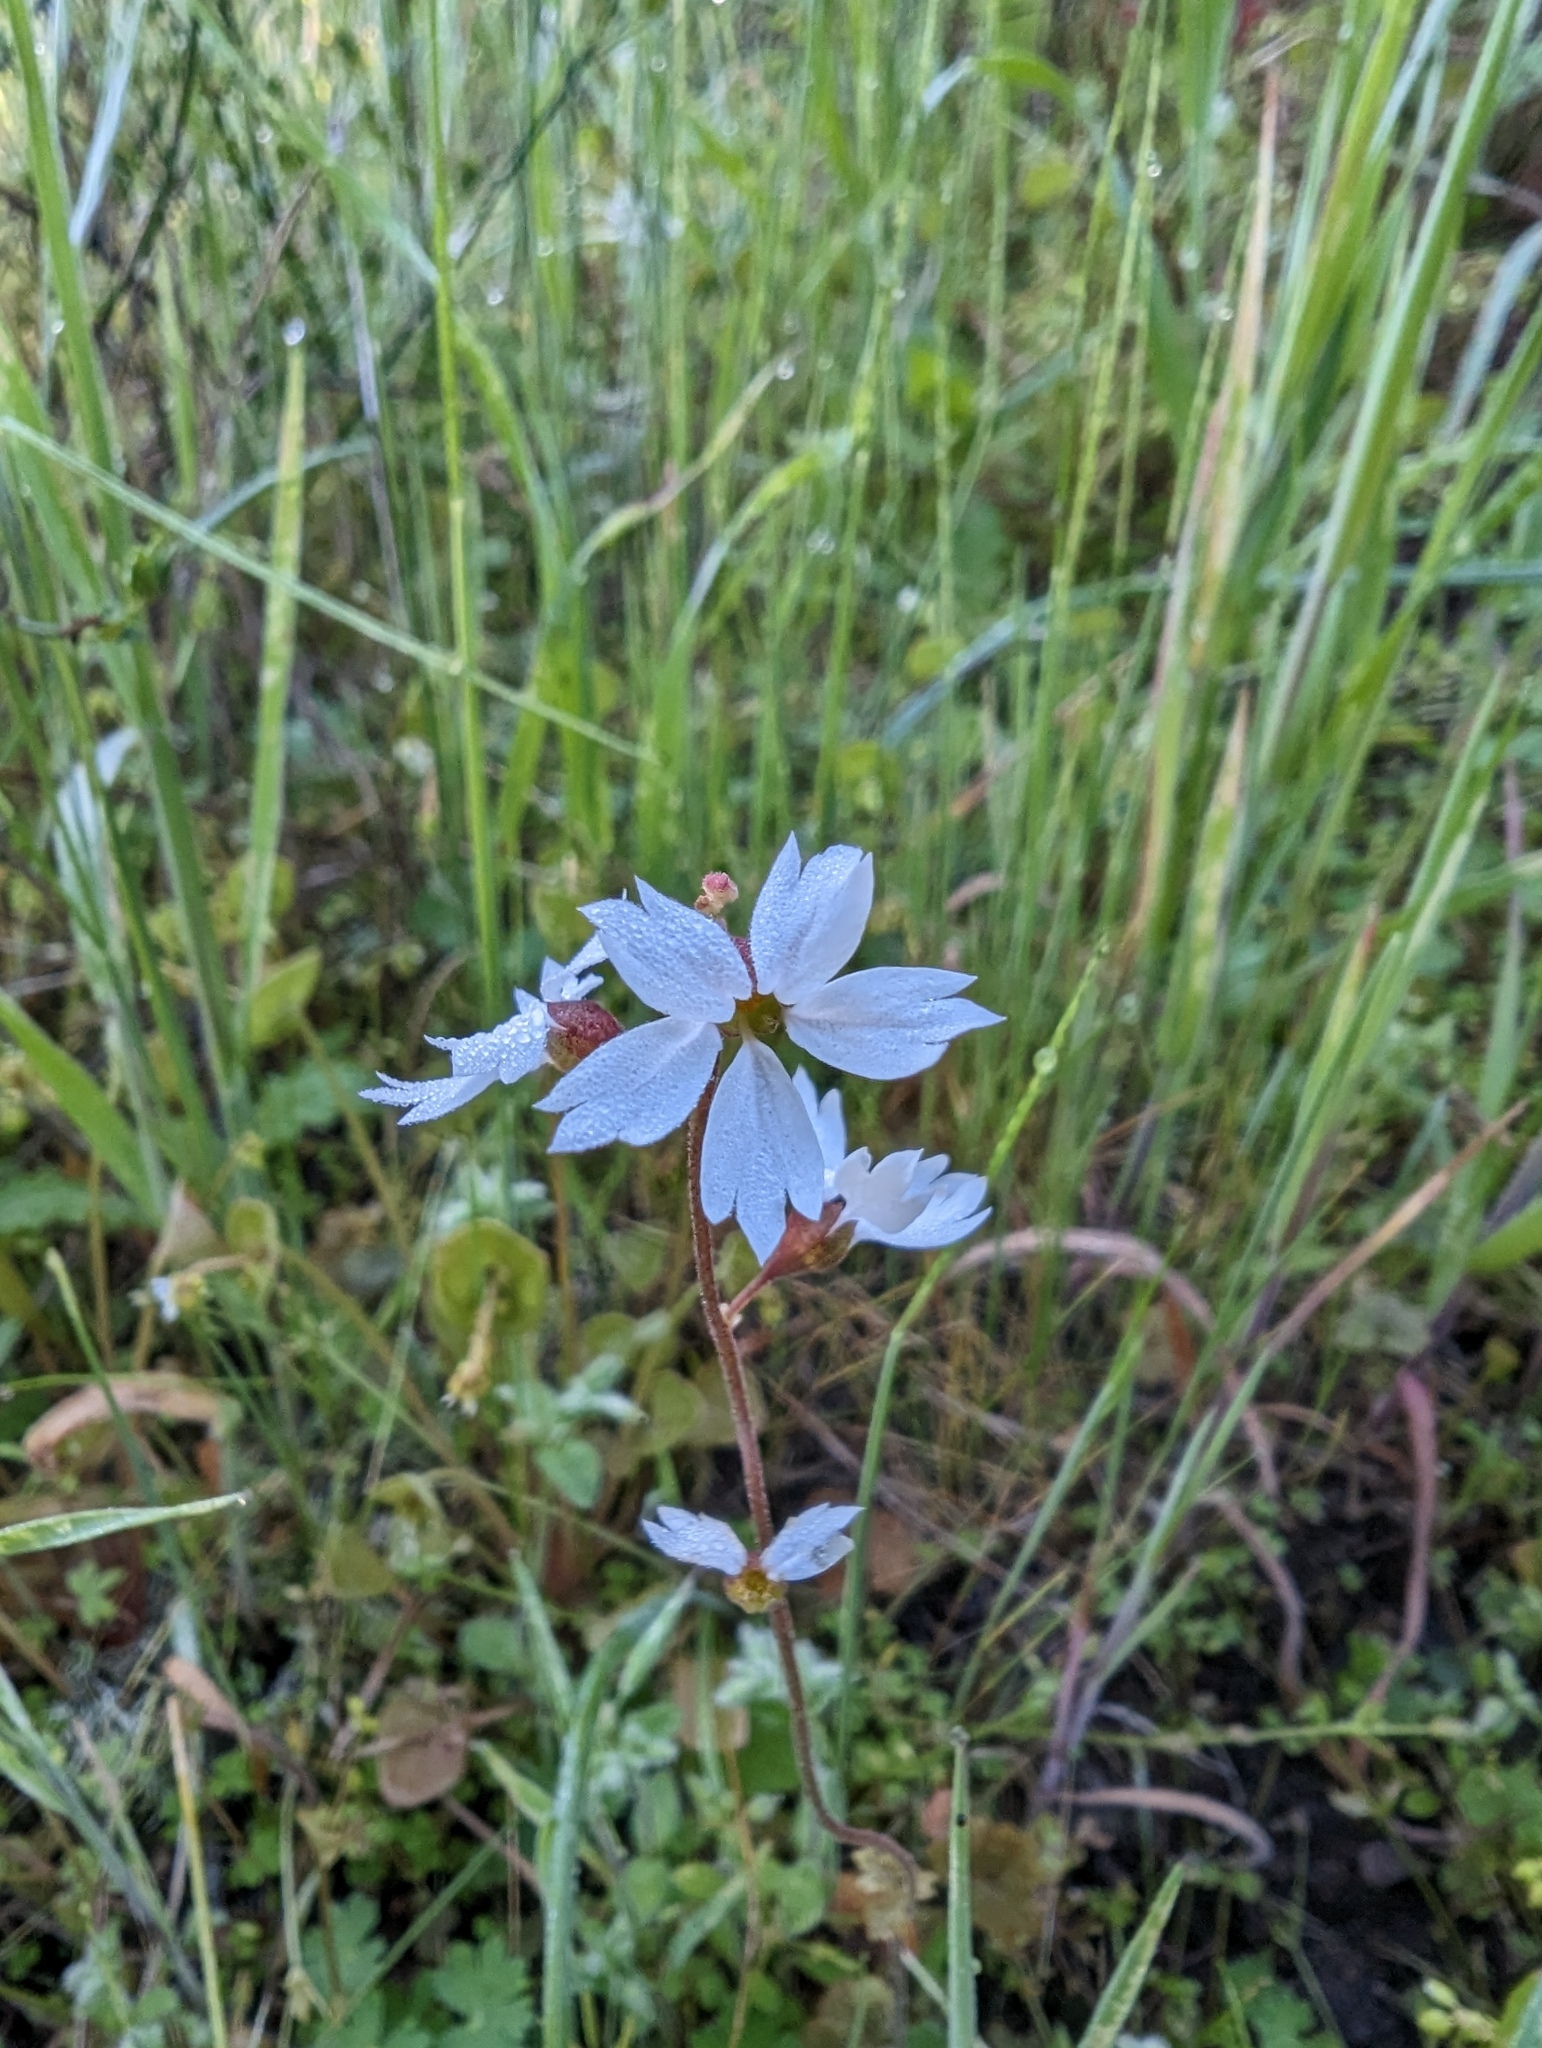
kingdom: Plantae
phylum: Tracheophyta
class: Magnoliopsida
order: Saxifragales
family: Saxifragaceae
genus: Lithophragma
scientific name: Lithophragma affine
